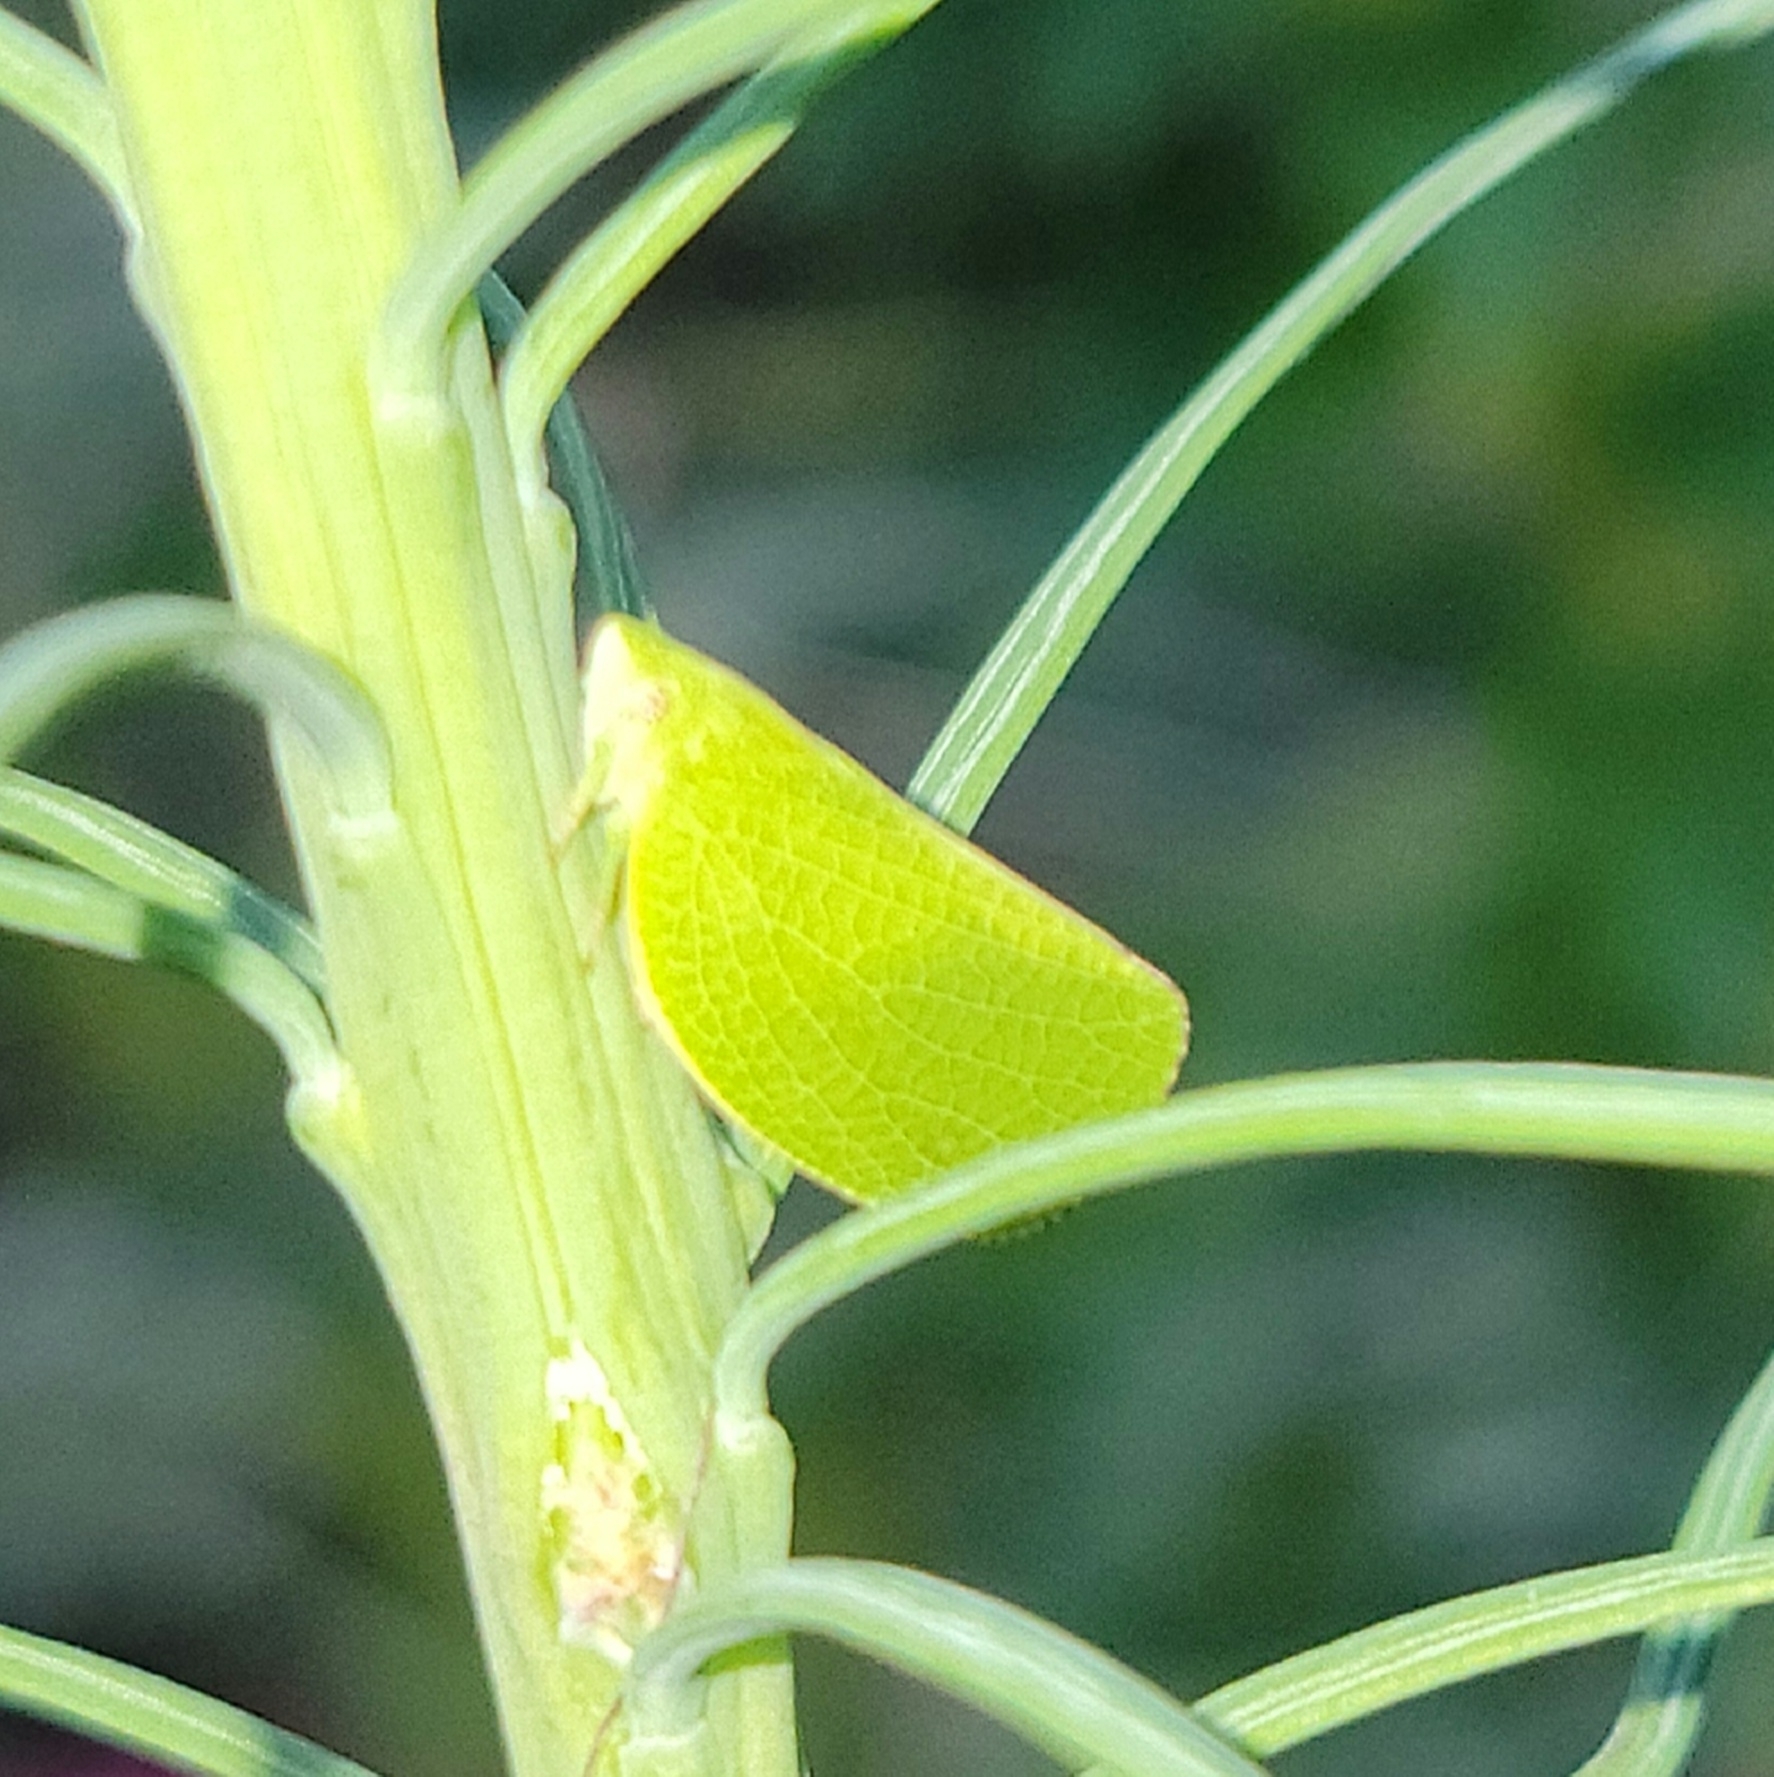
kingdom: Animalia
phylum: Arthropoda
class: Insecta
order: Hemiptera
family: Acanaloniidae
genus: Acanalonia
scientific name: Acanalonia conica
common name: Green cone-headed planthopper
